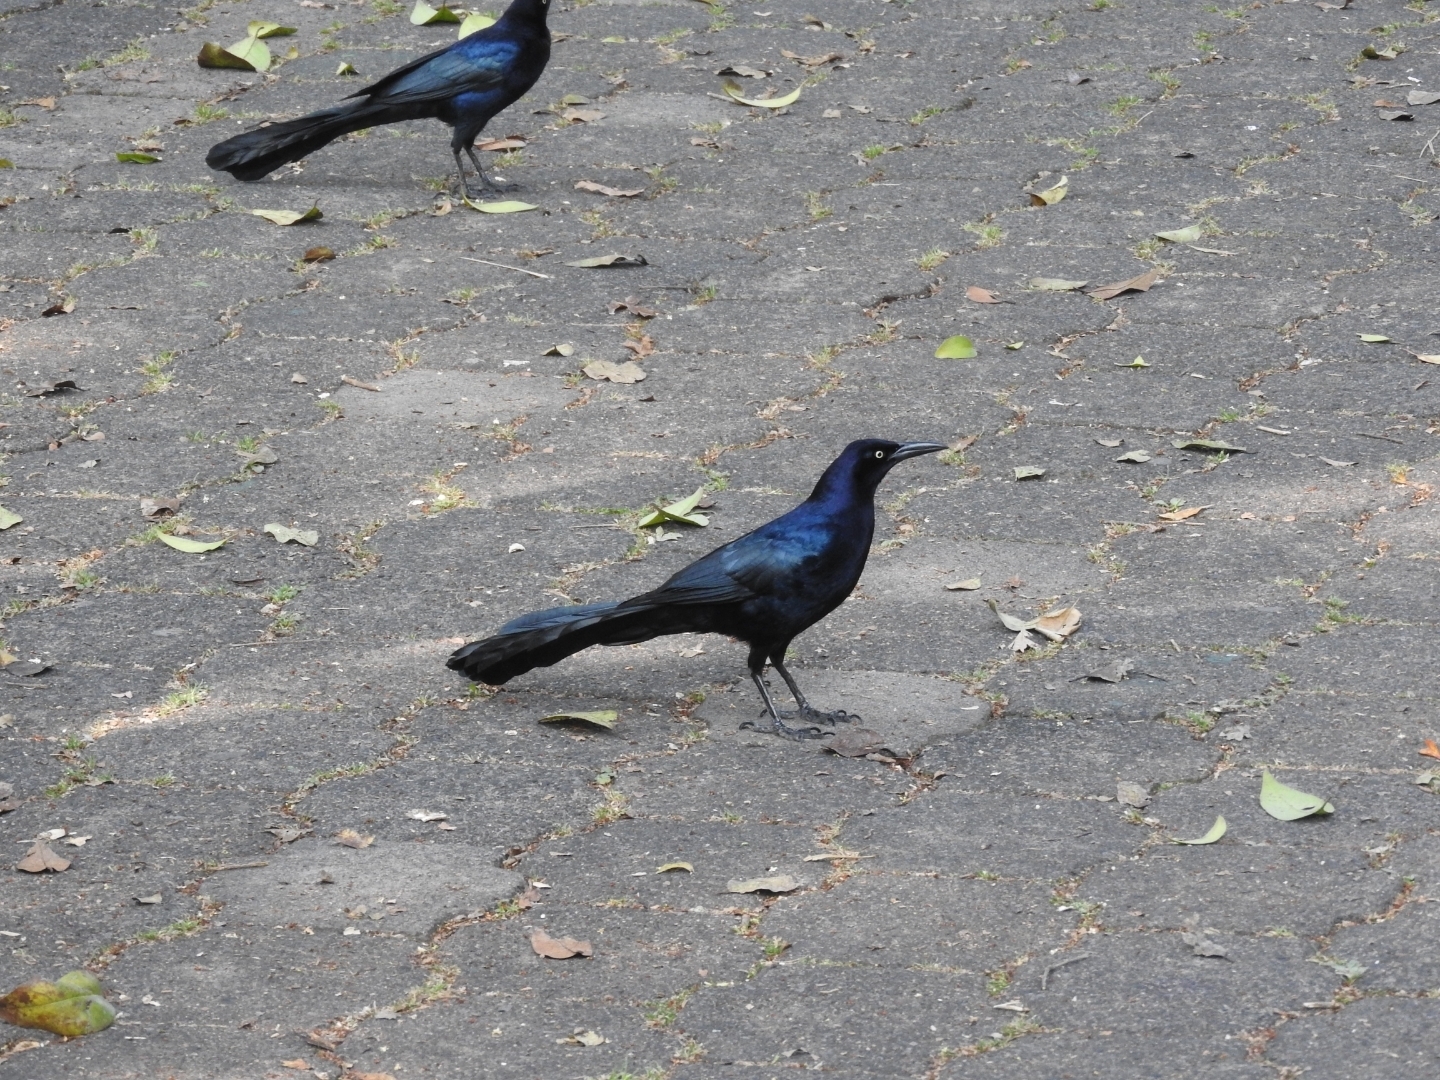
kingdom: Animalia
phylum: Chordata
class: Aves
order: Passeriformes
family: Icteridae
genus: Quiscalus
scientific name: Quiscalus mexicanus
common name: Great-tailed grackle
